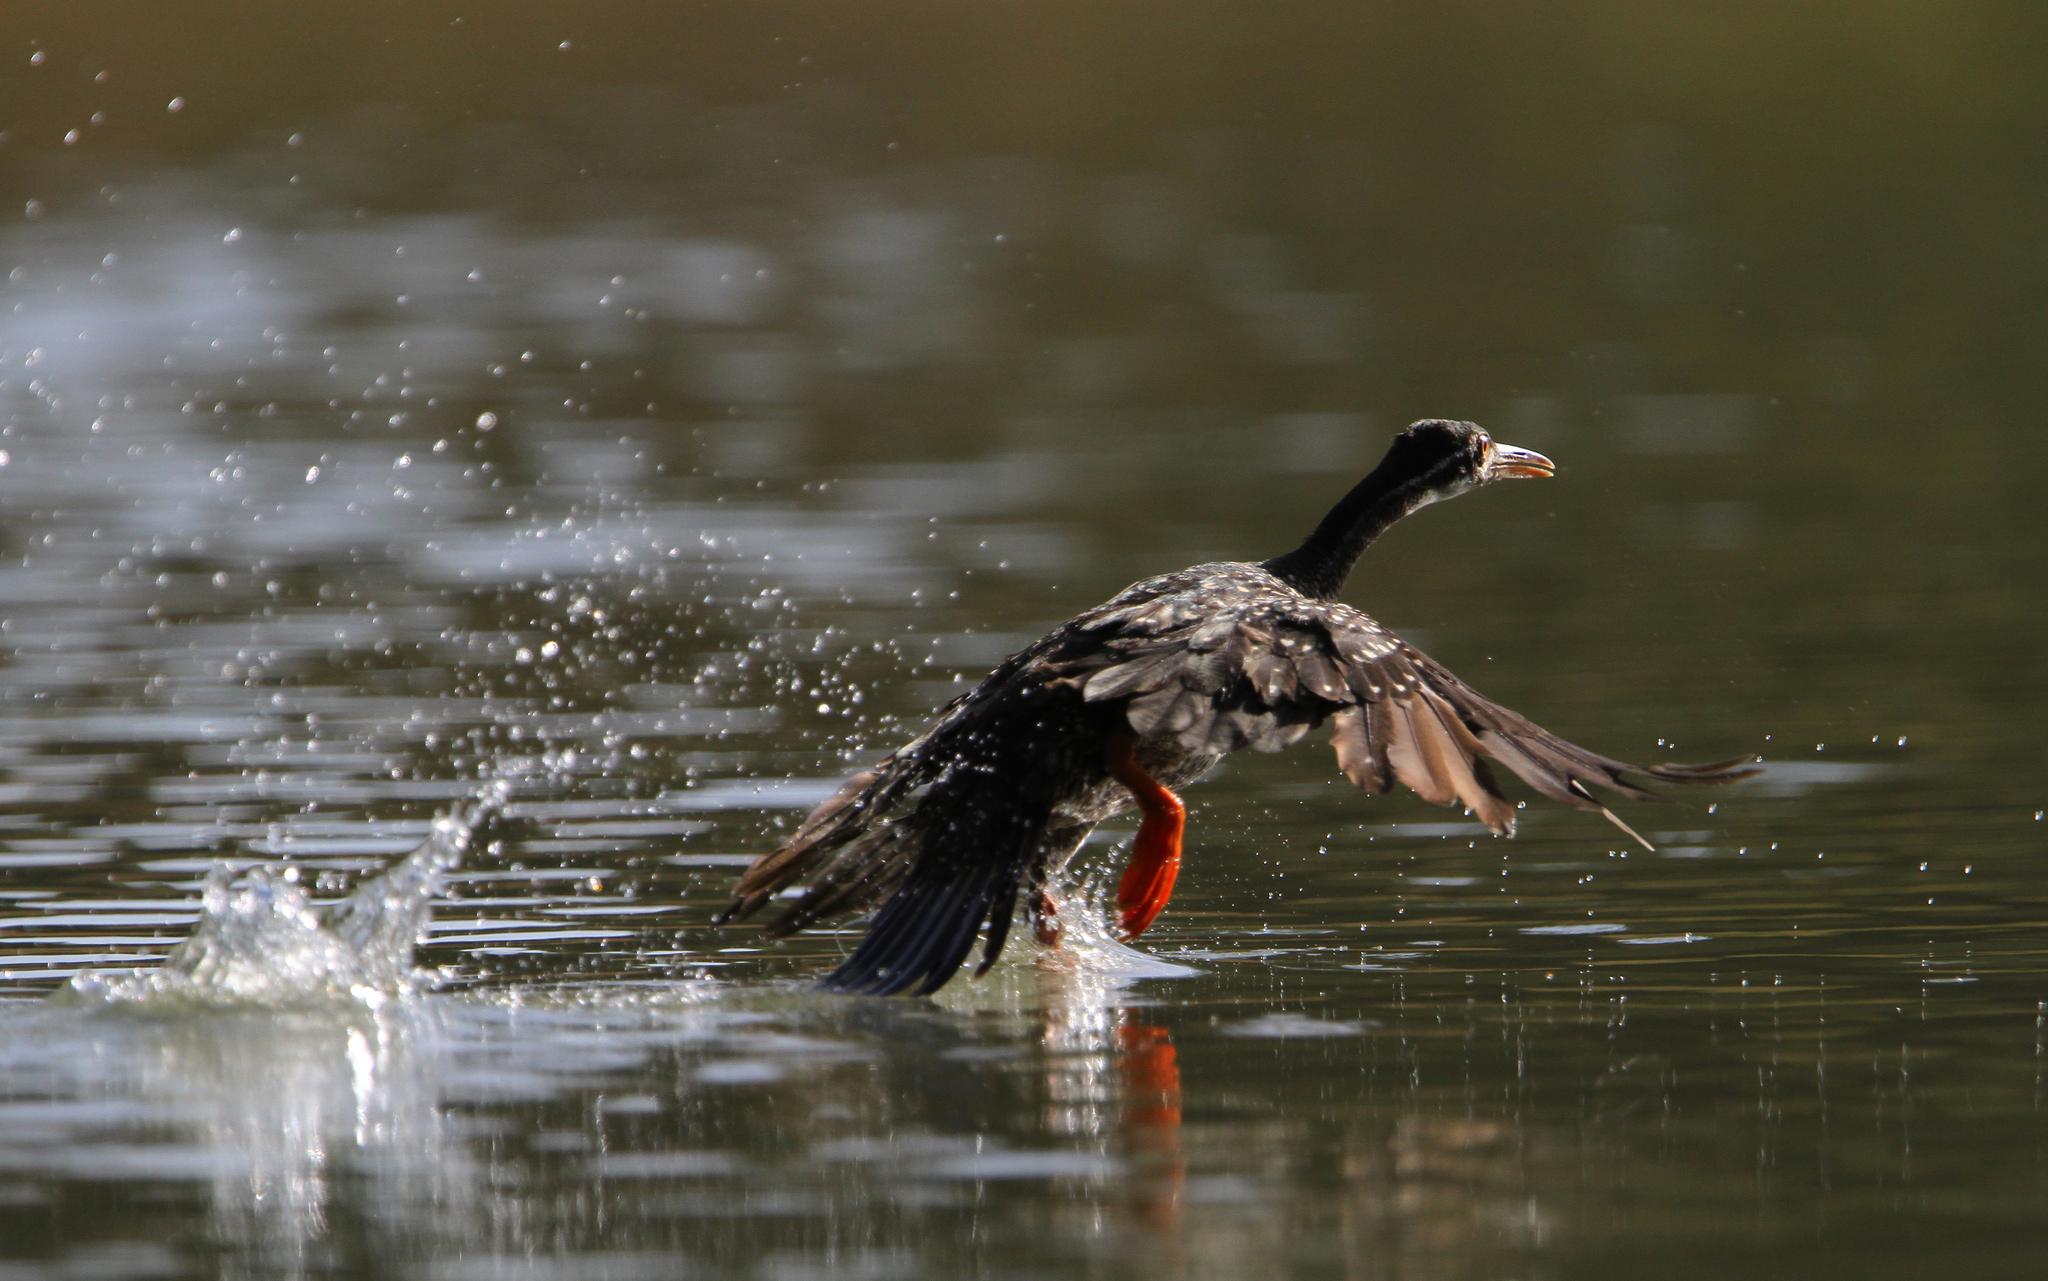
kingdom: Animalia
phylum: Chordata
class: Aves
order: Gruiformes
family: Heliornithidae
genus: Podica
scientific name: Podica senegalensis
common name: African finfoot
